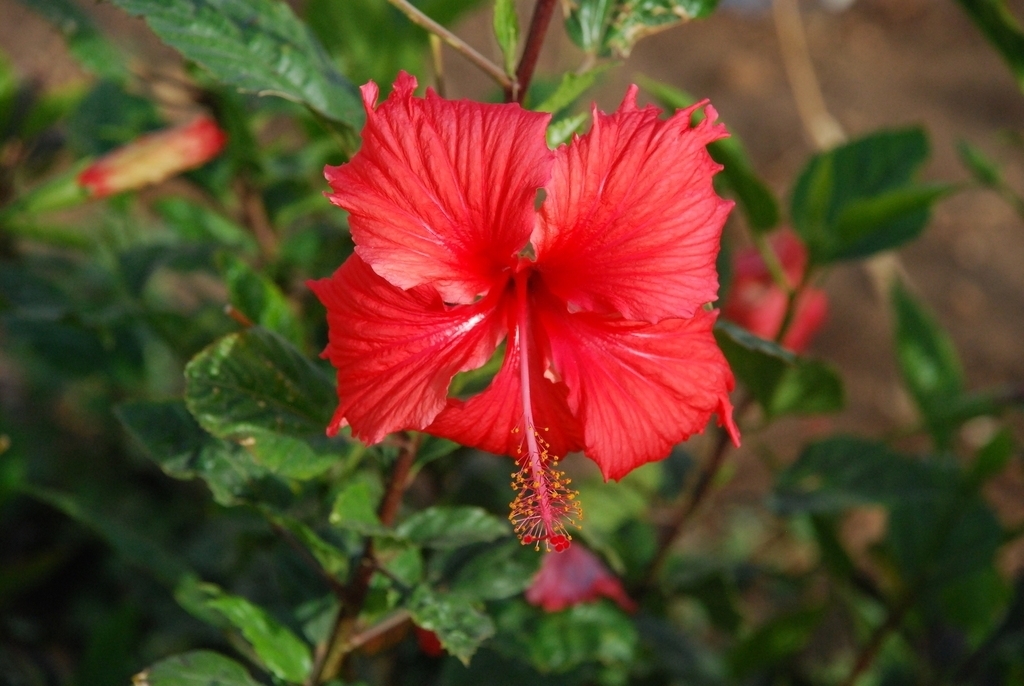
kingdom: Plantae
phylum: Tracheophyta
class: Magnoliopsida
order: Malvales
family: Malvaceae
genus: Hibiscus
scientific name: Hibiscus archeri
